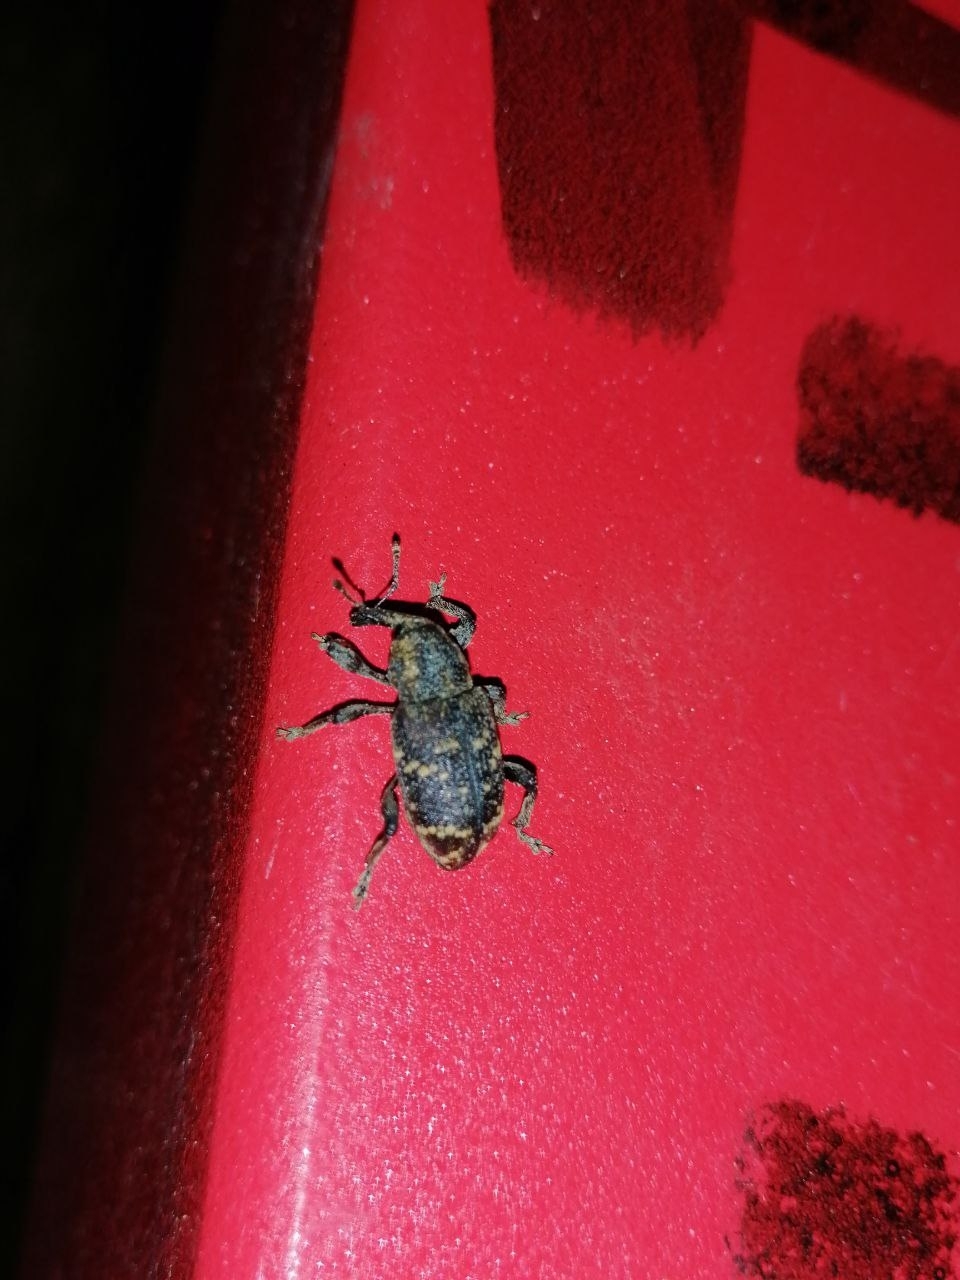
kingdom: Animalia
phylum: Arthropoda
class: Insecta
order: Coleoptera
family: Curculionidae
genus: Hylobius
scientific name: Hylobius abietis
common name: Large pine weevil
